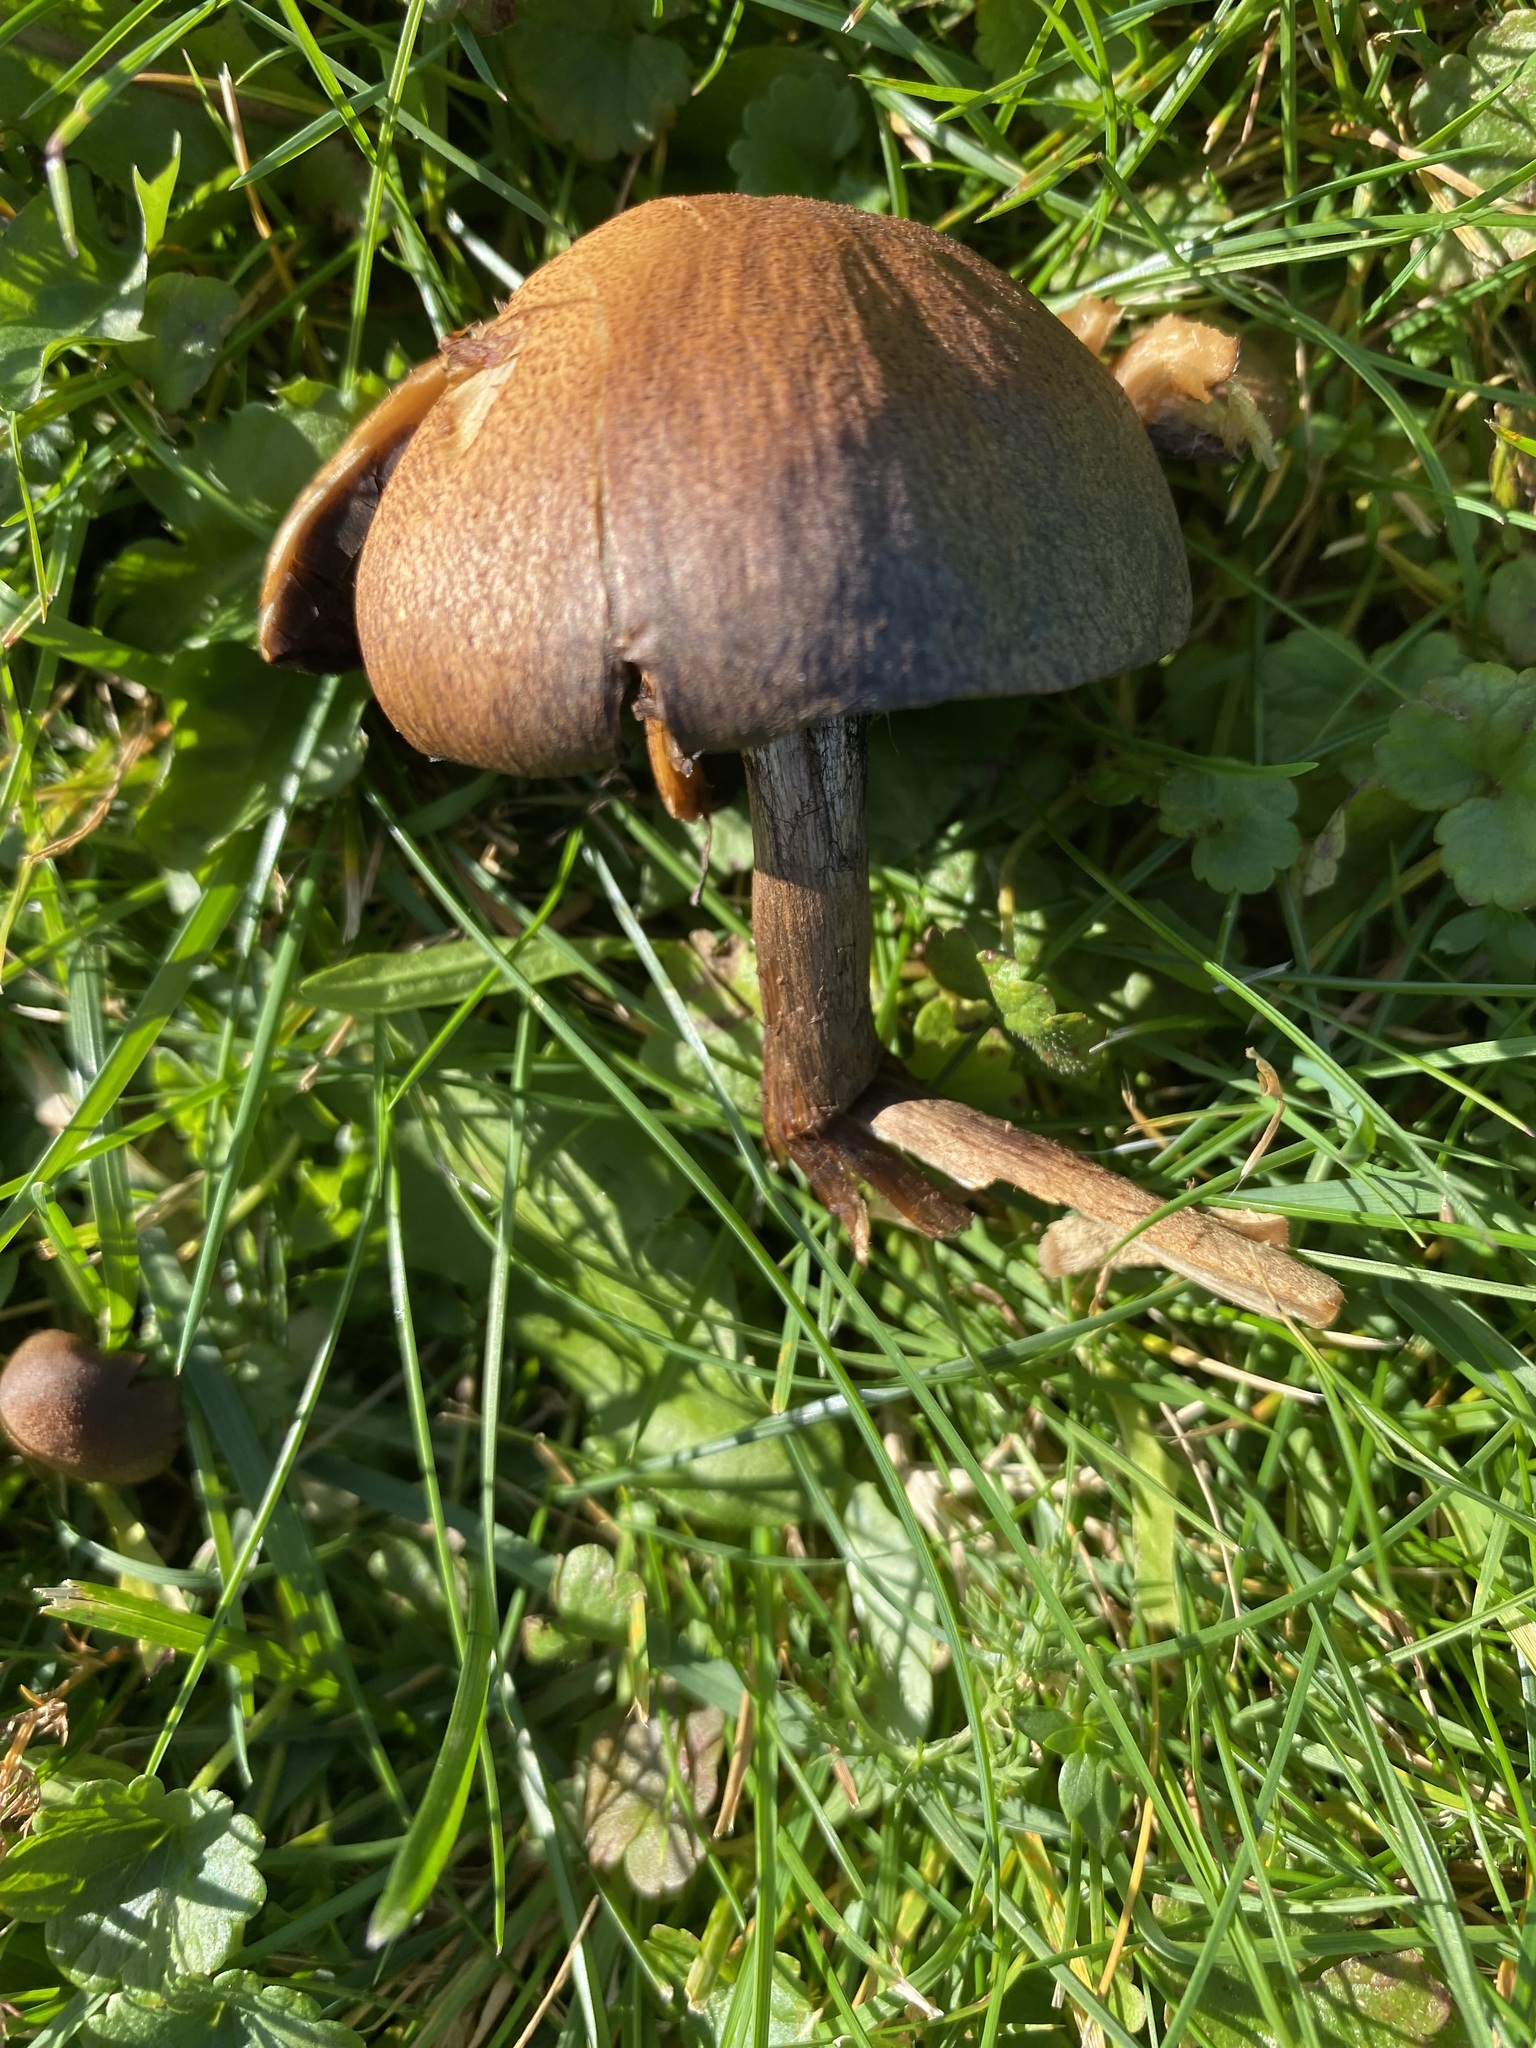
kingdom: Fungi
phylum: Basidiomycota
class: Agaricomycetes
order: Agaricales
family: Psathyrellaceae
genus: Lacrymaria
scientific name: Lacrymaria lacrymabunda
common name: Weeping widow
